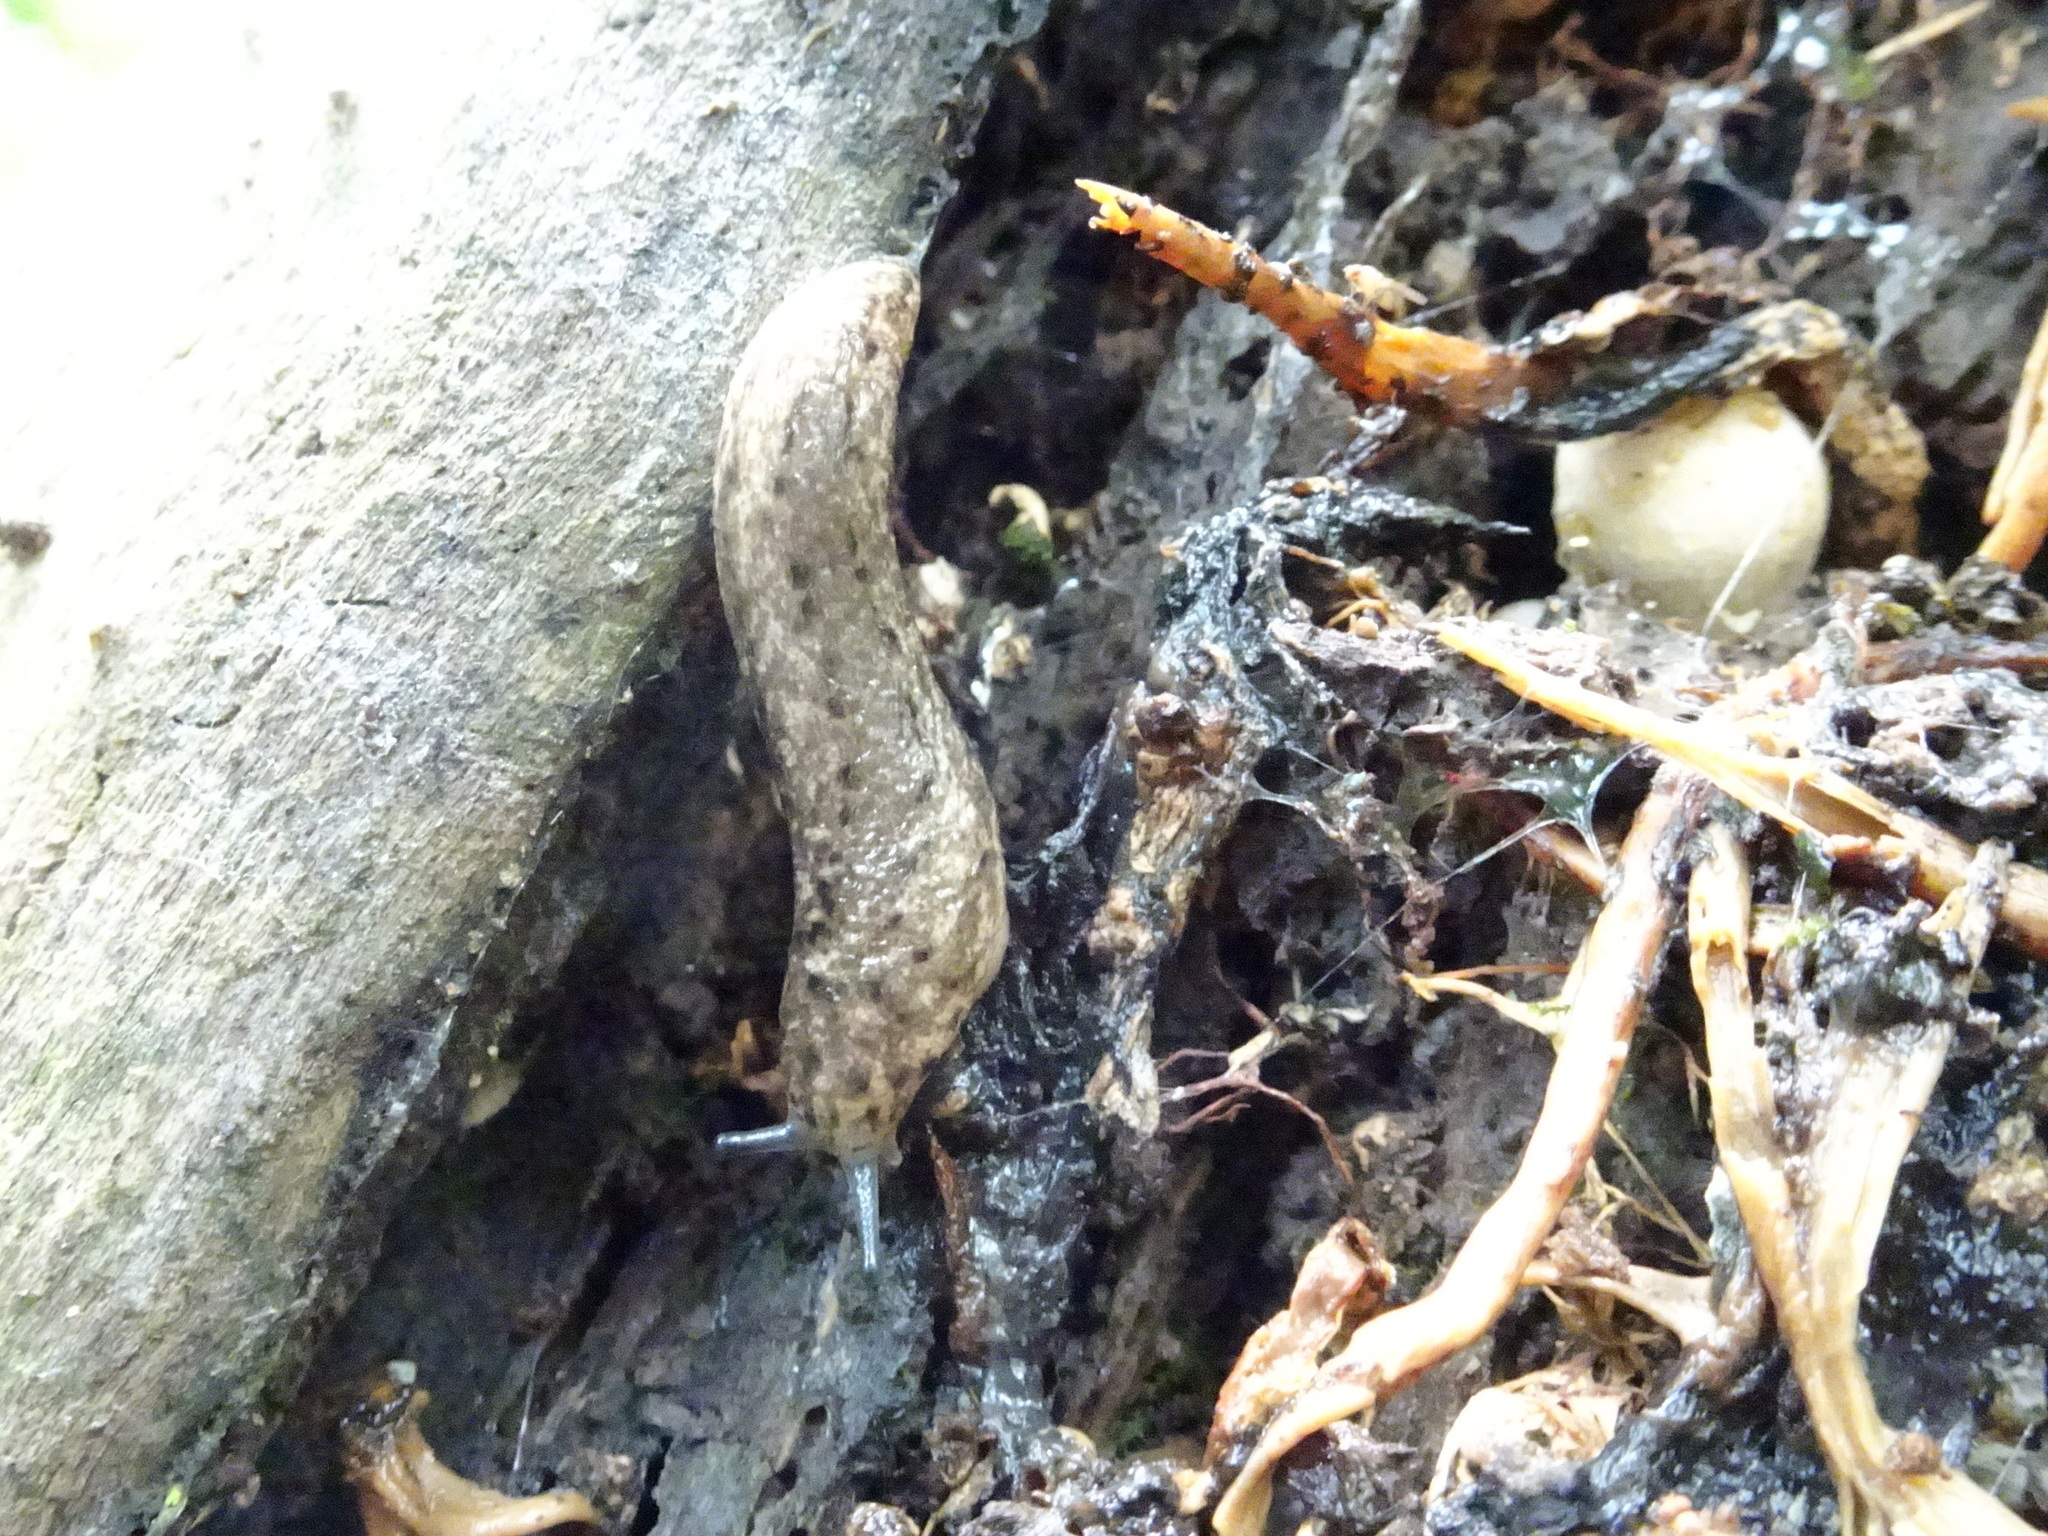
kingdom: Animalia
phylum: Mollusca
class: Gastropoda
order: Stylommatophora
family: Philomycidae
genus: Philomycus
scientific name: Philomycus carolinianus
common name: Carolina mantleslug
